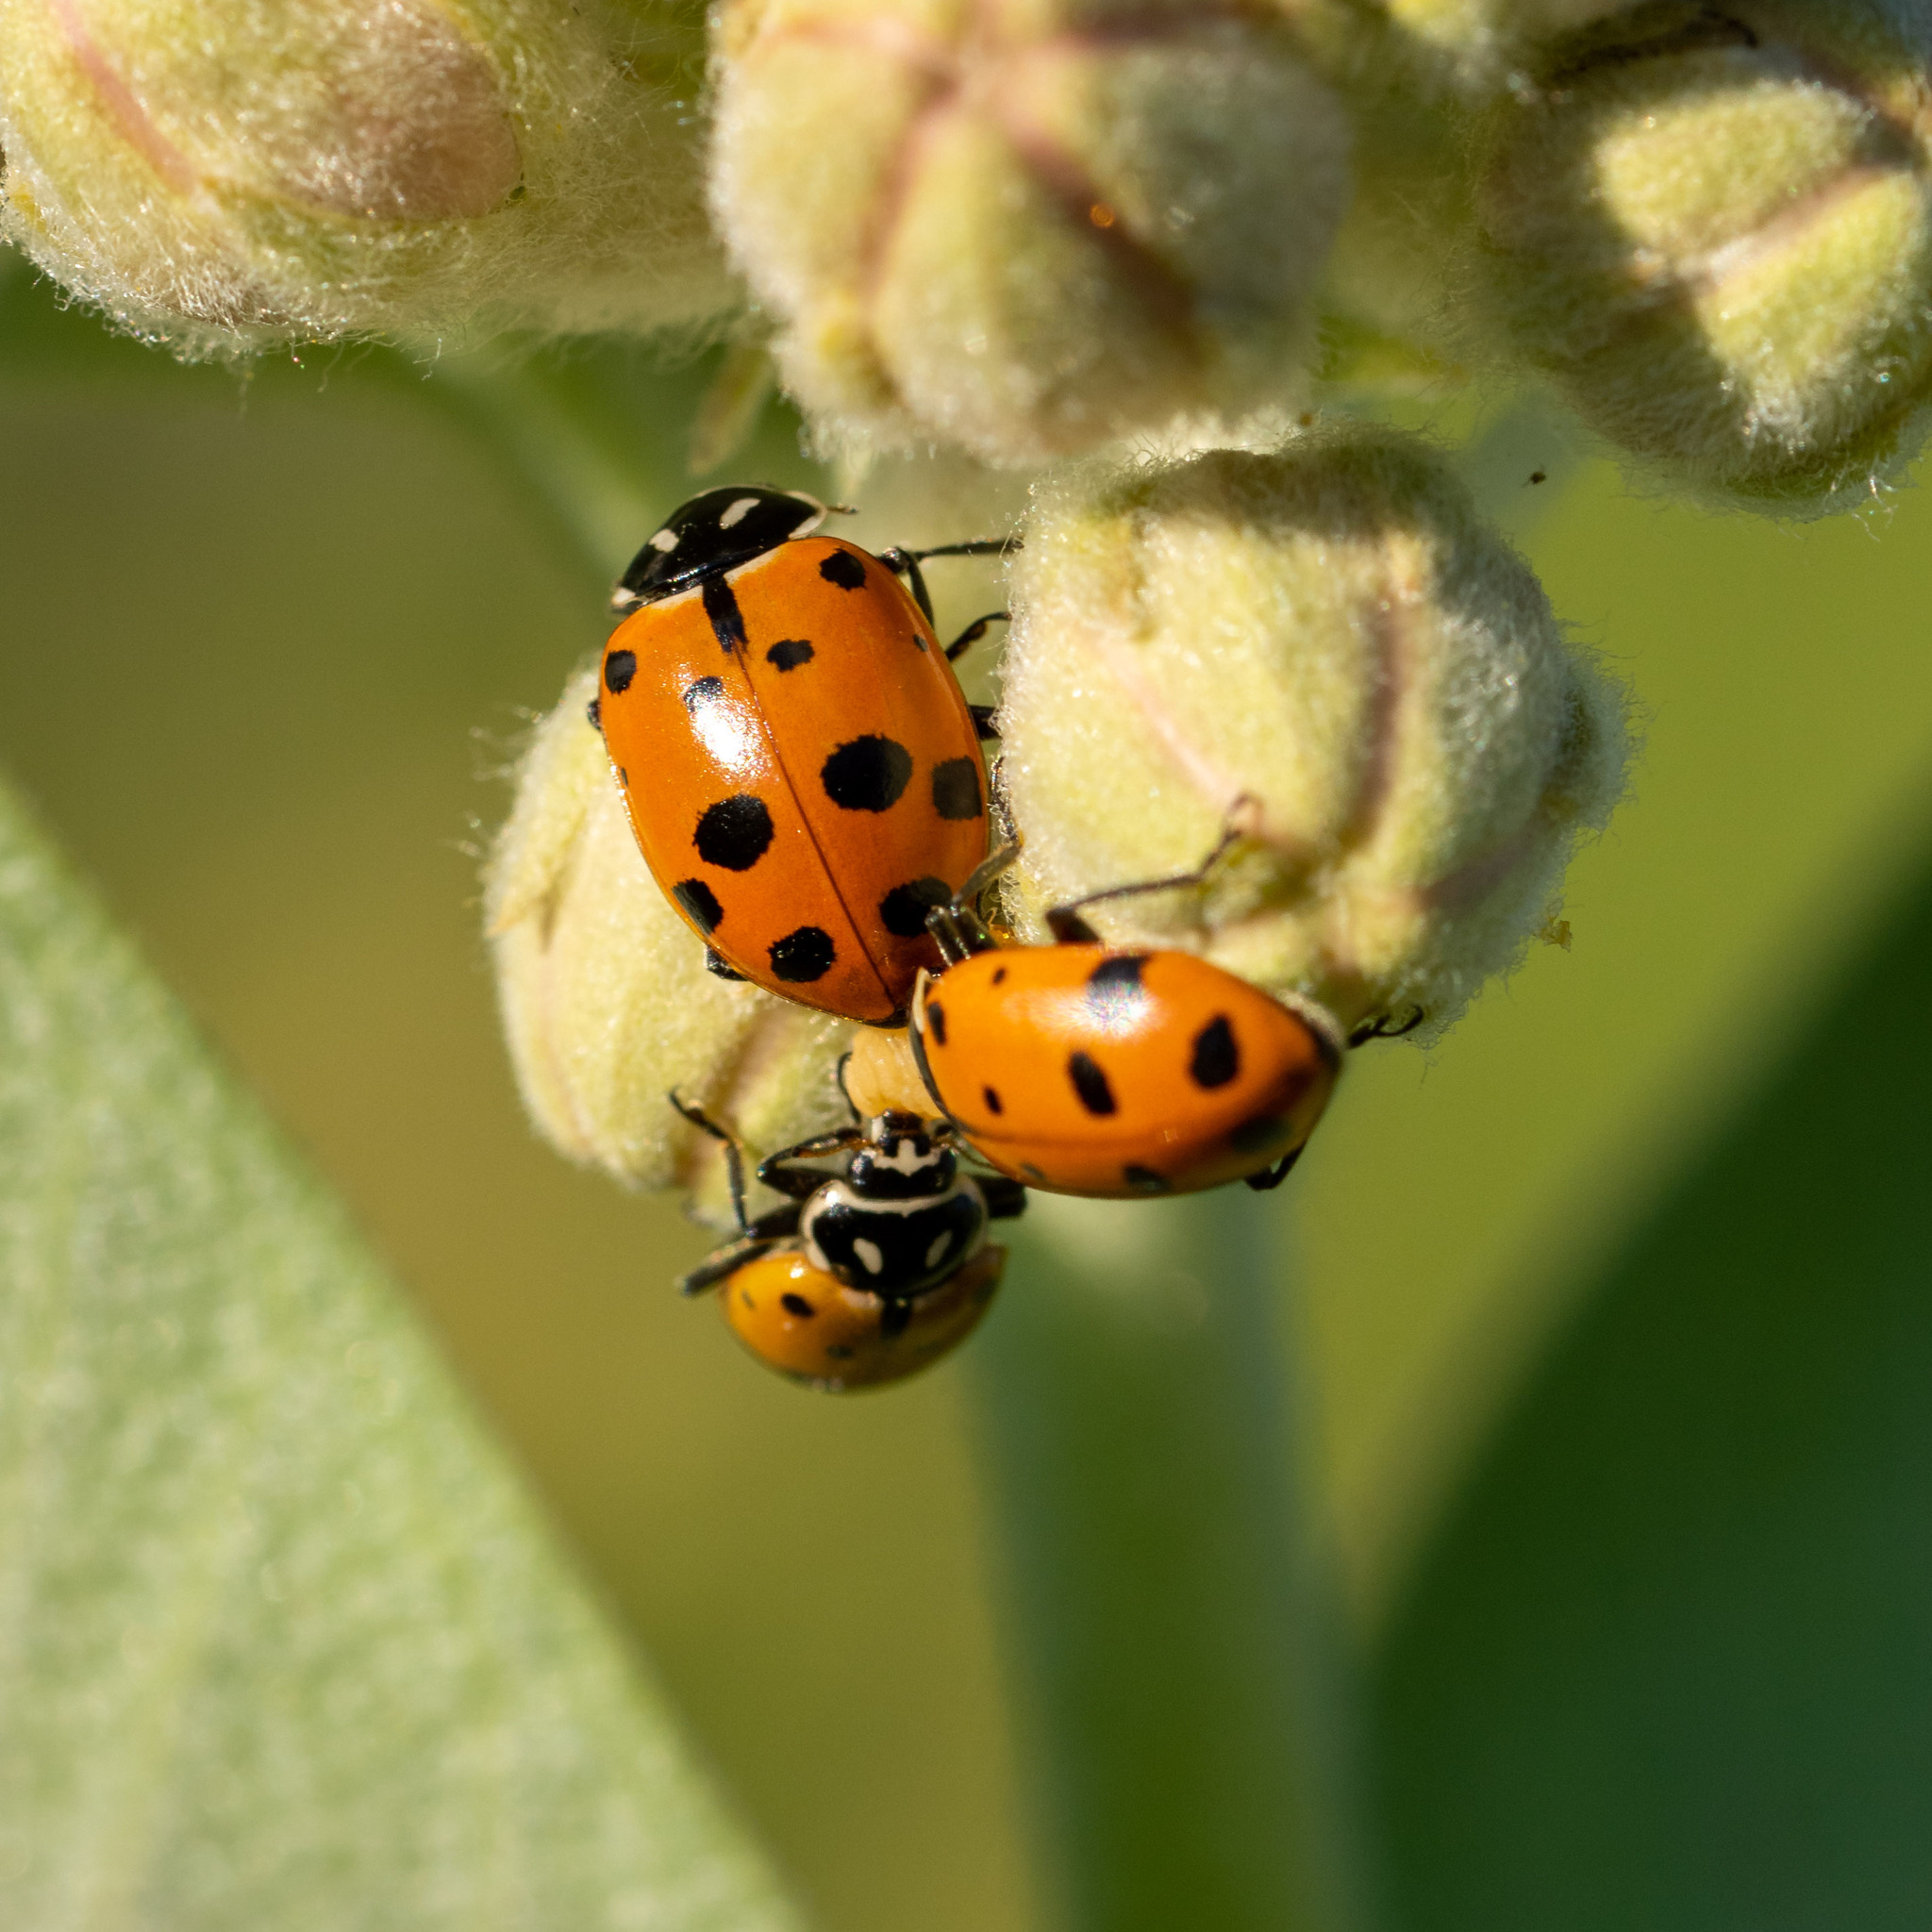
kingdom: Animalia
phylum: Arthropoda
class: Insecta
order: Coleoptera
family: Coccinellidae
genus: Hippodamia
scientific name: Hippodamia convergens
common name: Convergent lady beetle
